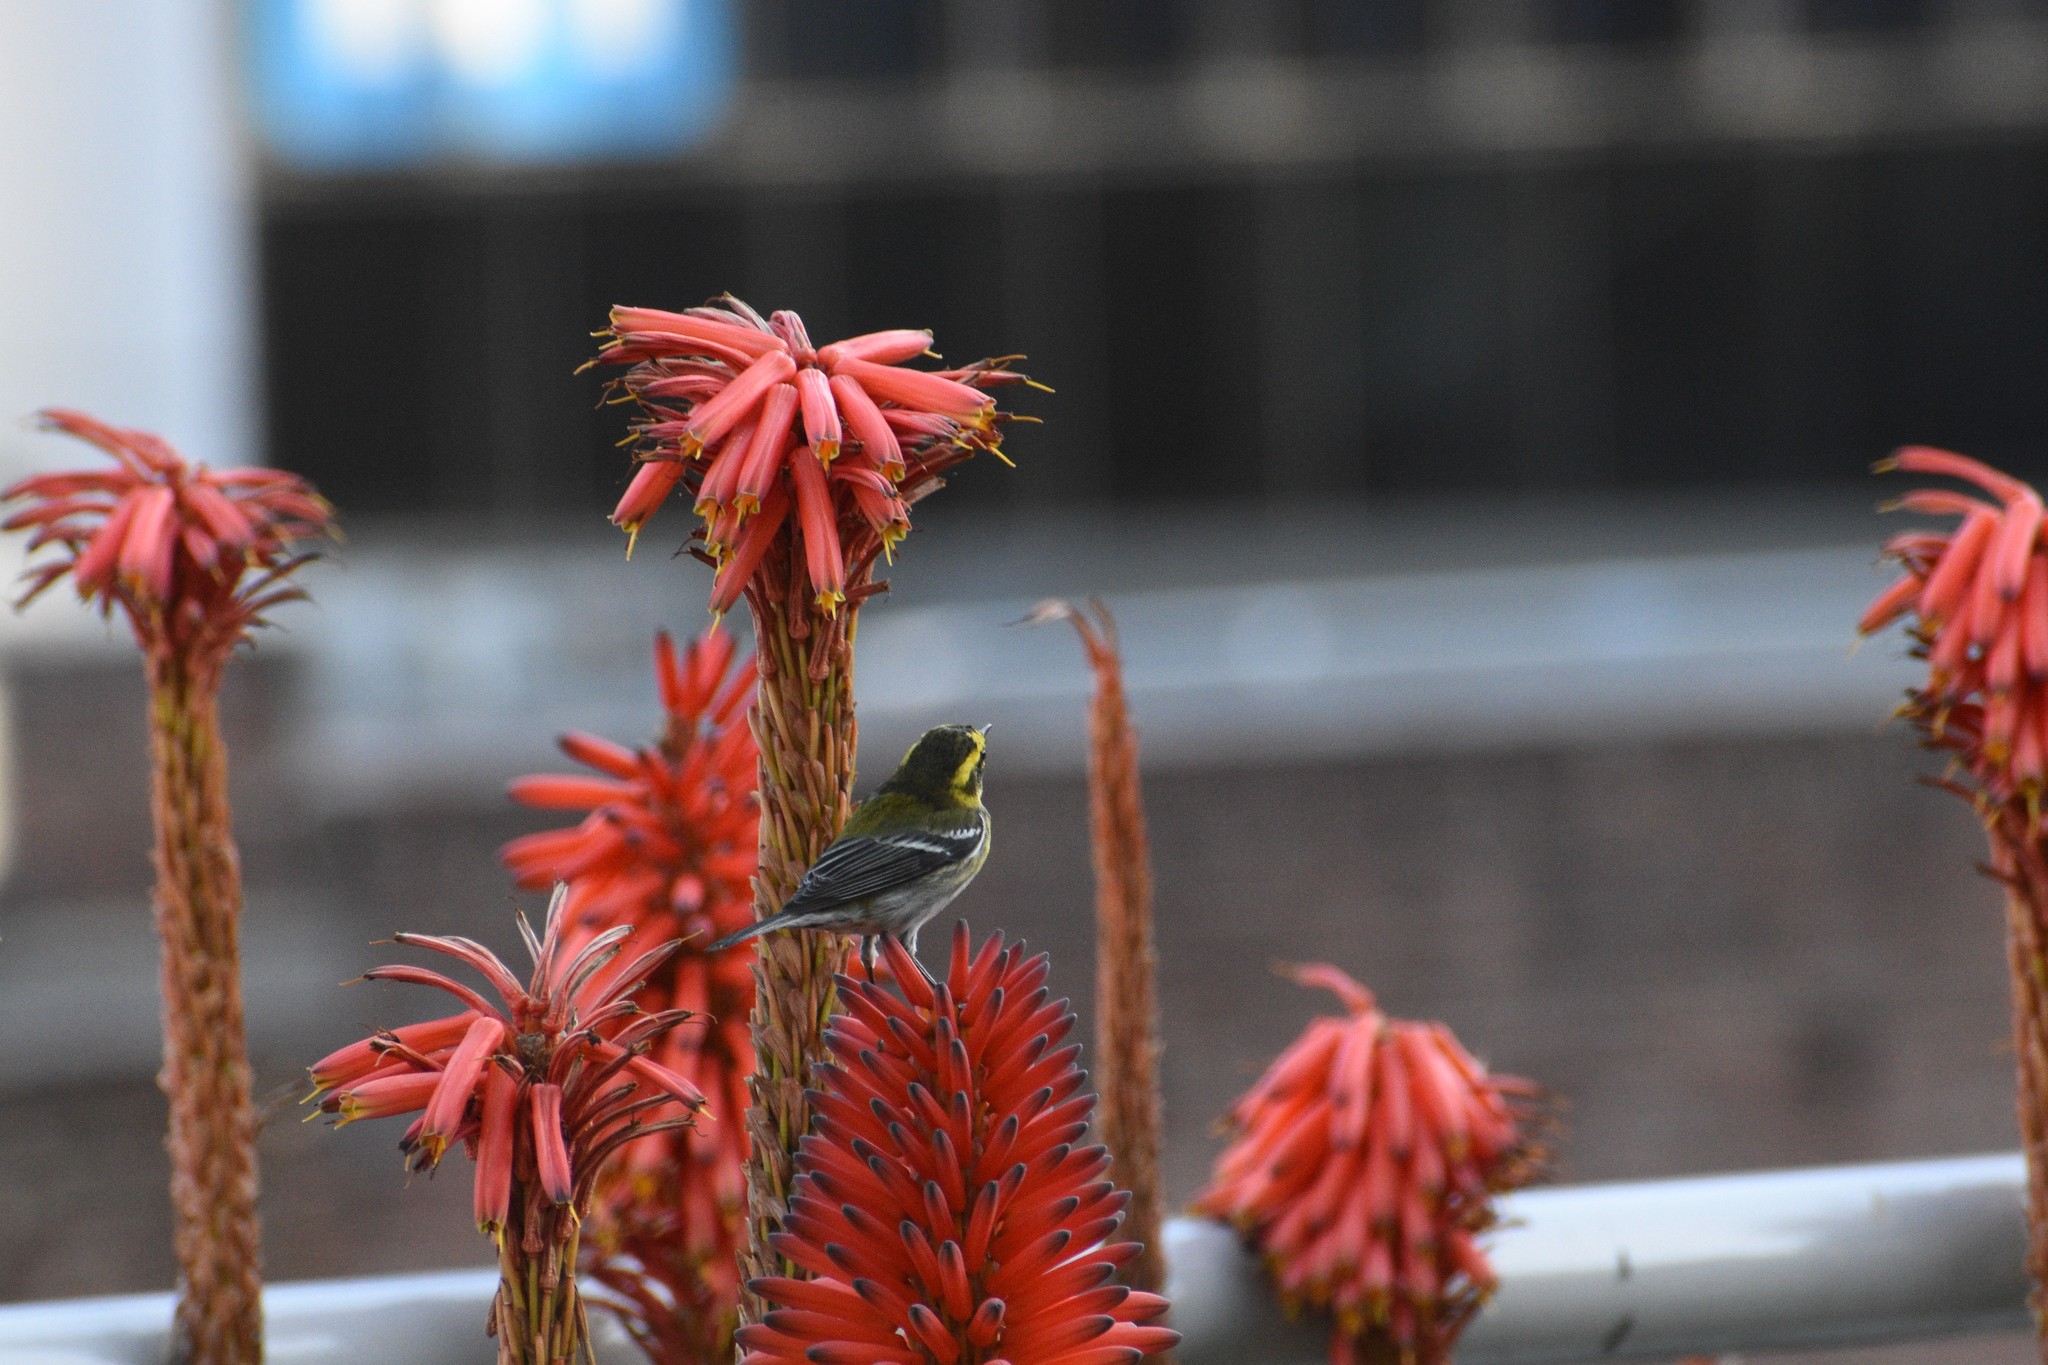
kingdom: Animalia
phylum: Chordata
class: Aves
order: Passeriformes
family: Parulidae
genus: Setophaga
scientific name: Setophaga townsendi
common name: Townsend's warbler
